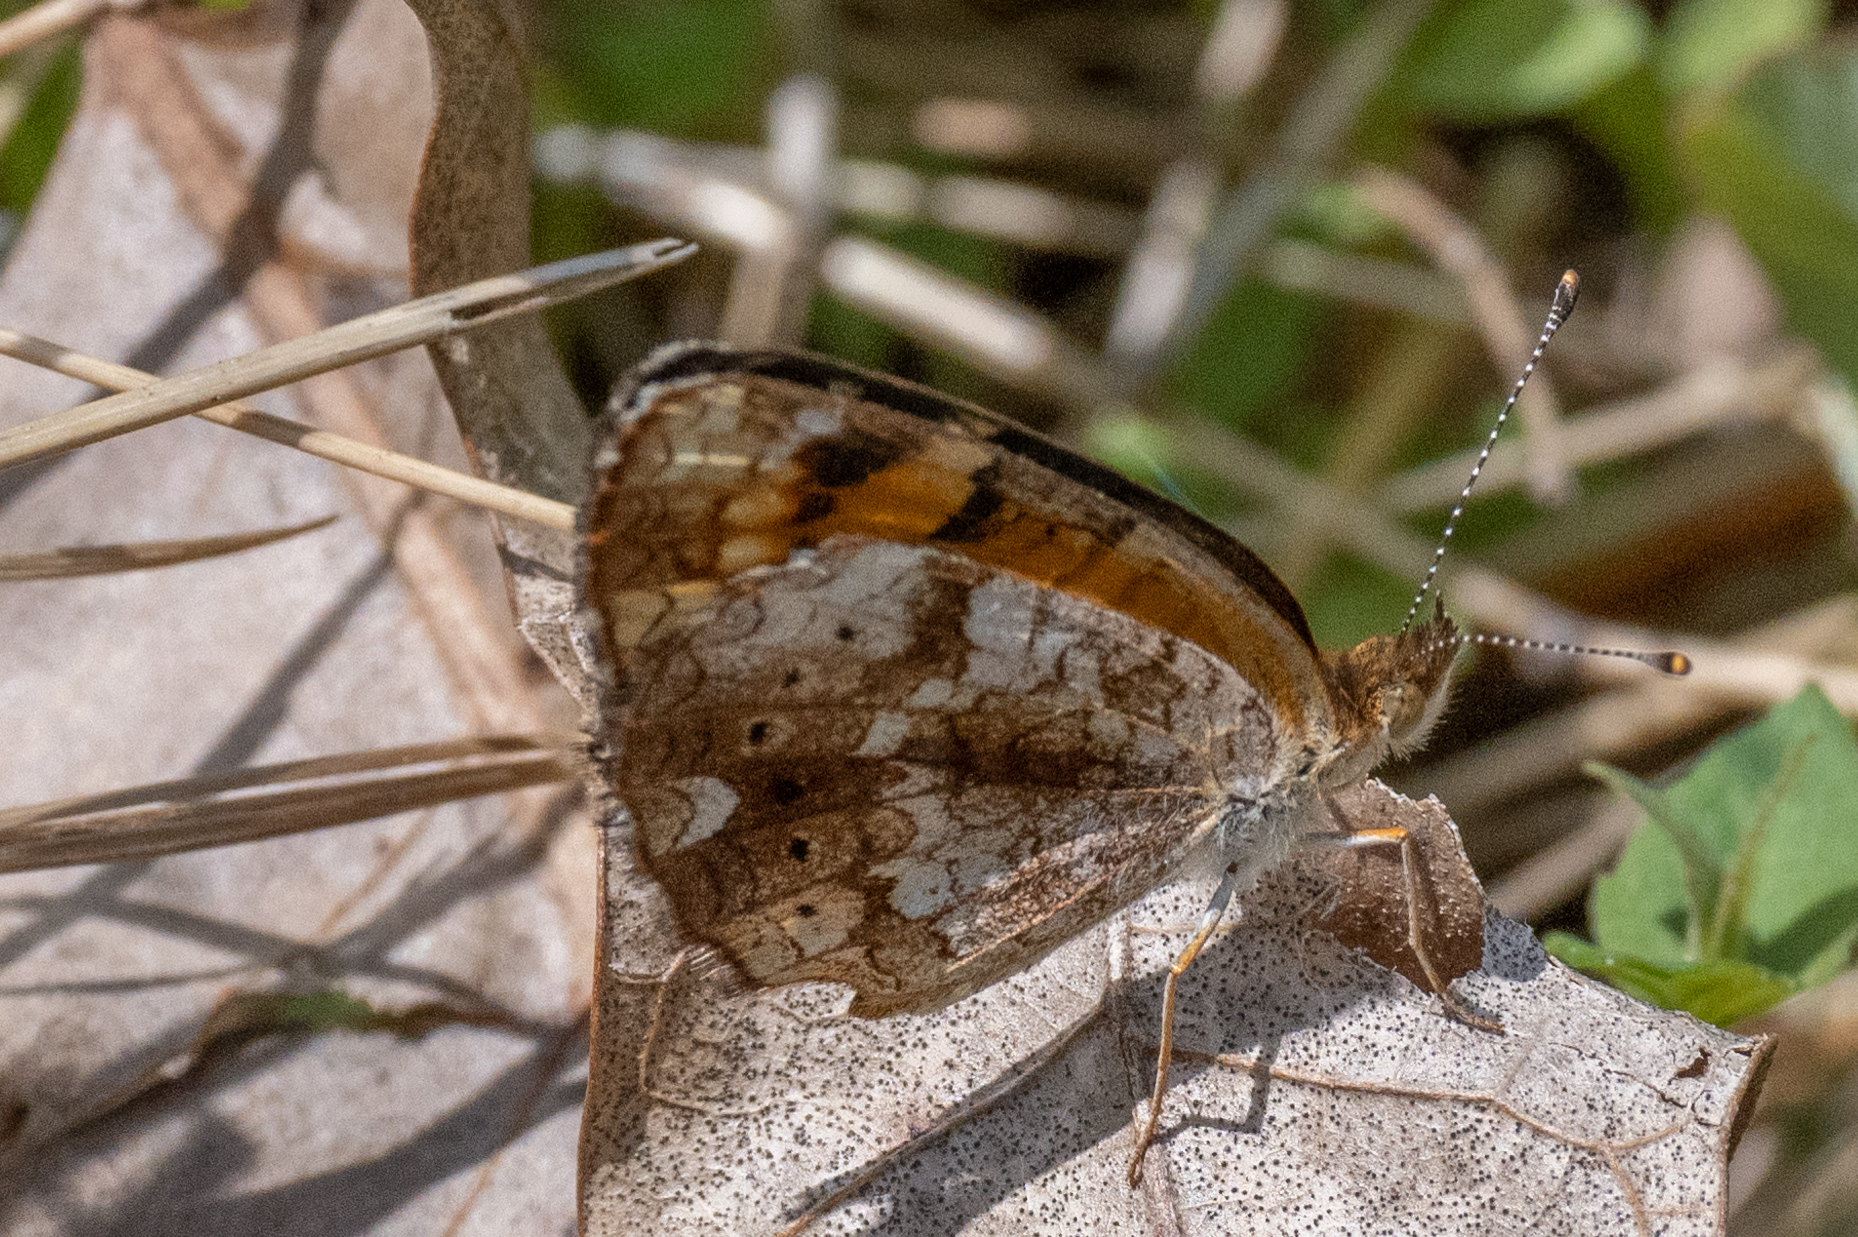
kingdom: Animalia
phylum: Arthropoda
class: Insecta
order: Lepidoptera
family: Nymphalidae
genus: Phyciodes
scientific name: Phyciodes tharos
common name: Pearl crescent
